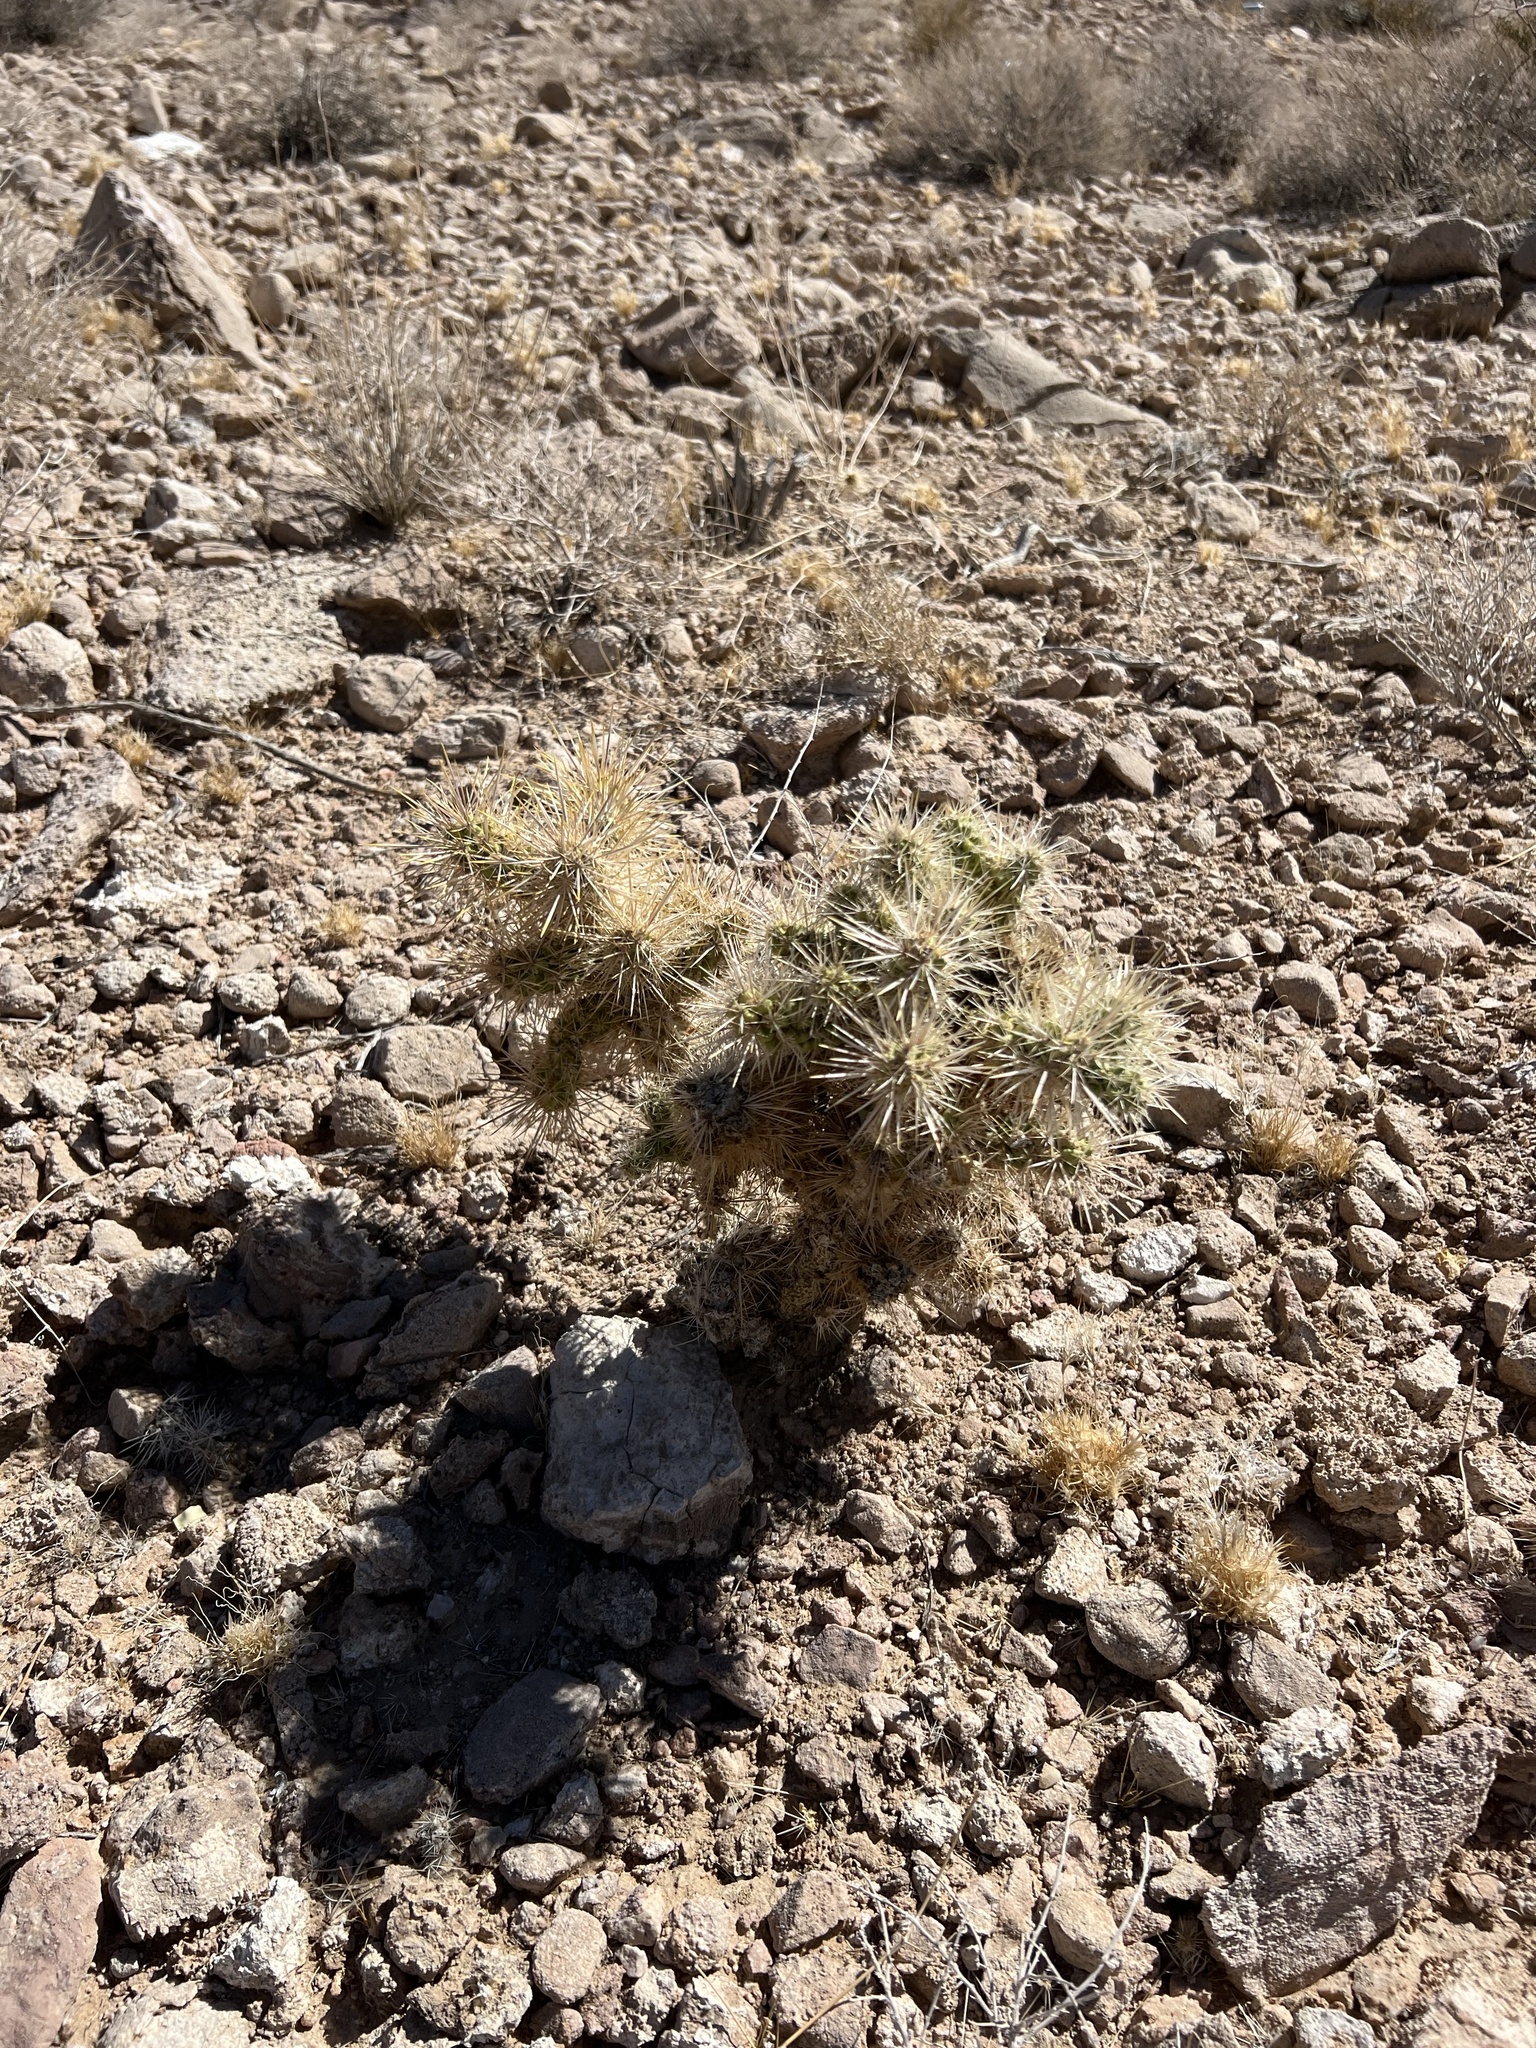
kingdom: Plantae
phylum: Tracheophyta
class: Magnoliopsida
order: Caryophyllales
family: Cactaceae
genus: Cylindropuntia
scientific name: Cylindropuntia multigeniculata
